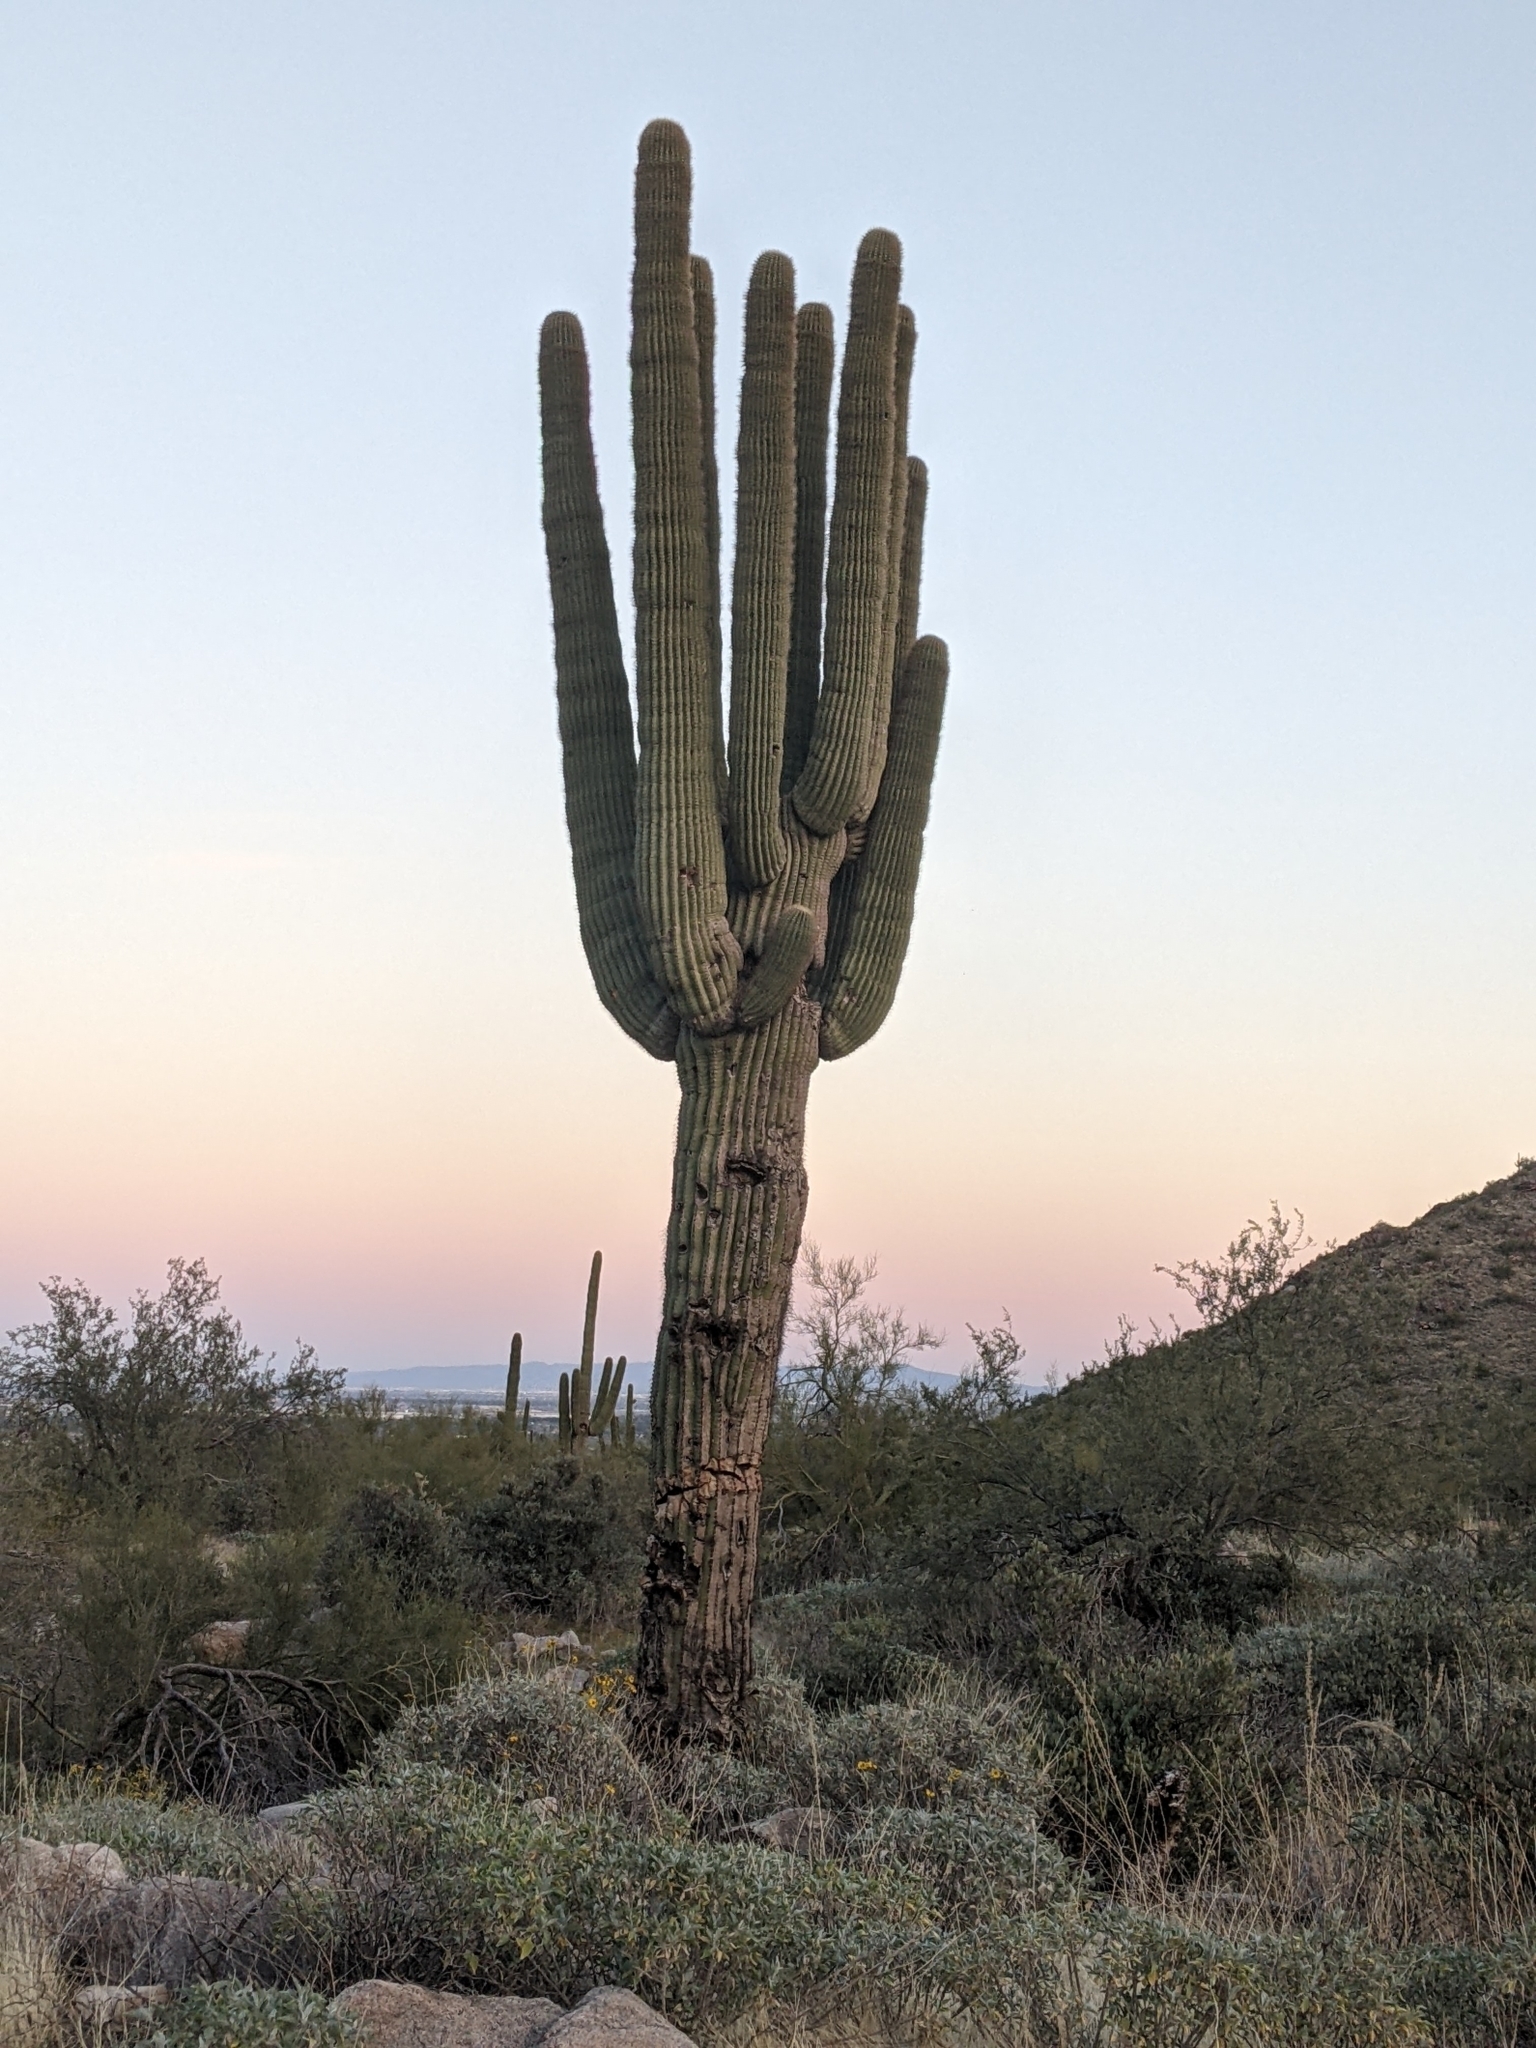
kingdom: Plantae
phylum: Tracheophyta
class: Magnoliopsida
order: Caryophyllales
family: Cactaceae
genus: Carnegiea
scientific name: Carnegiea gigantea
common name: Saguaro
